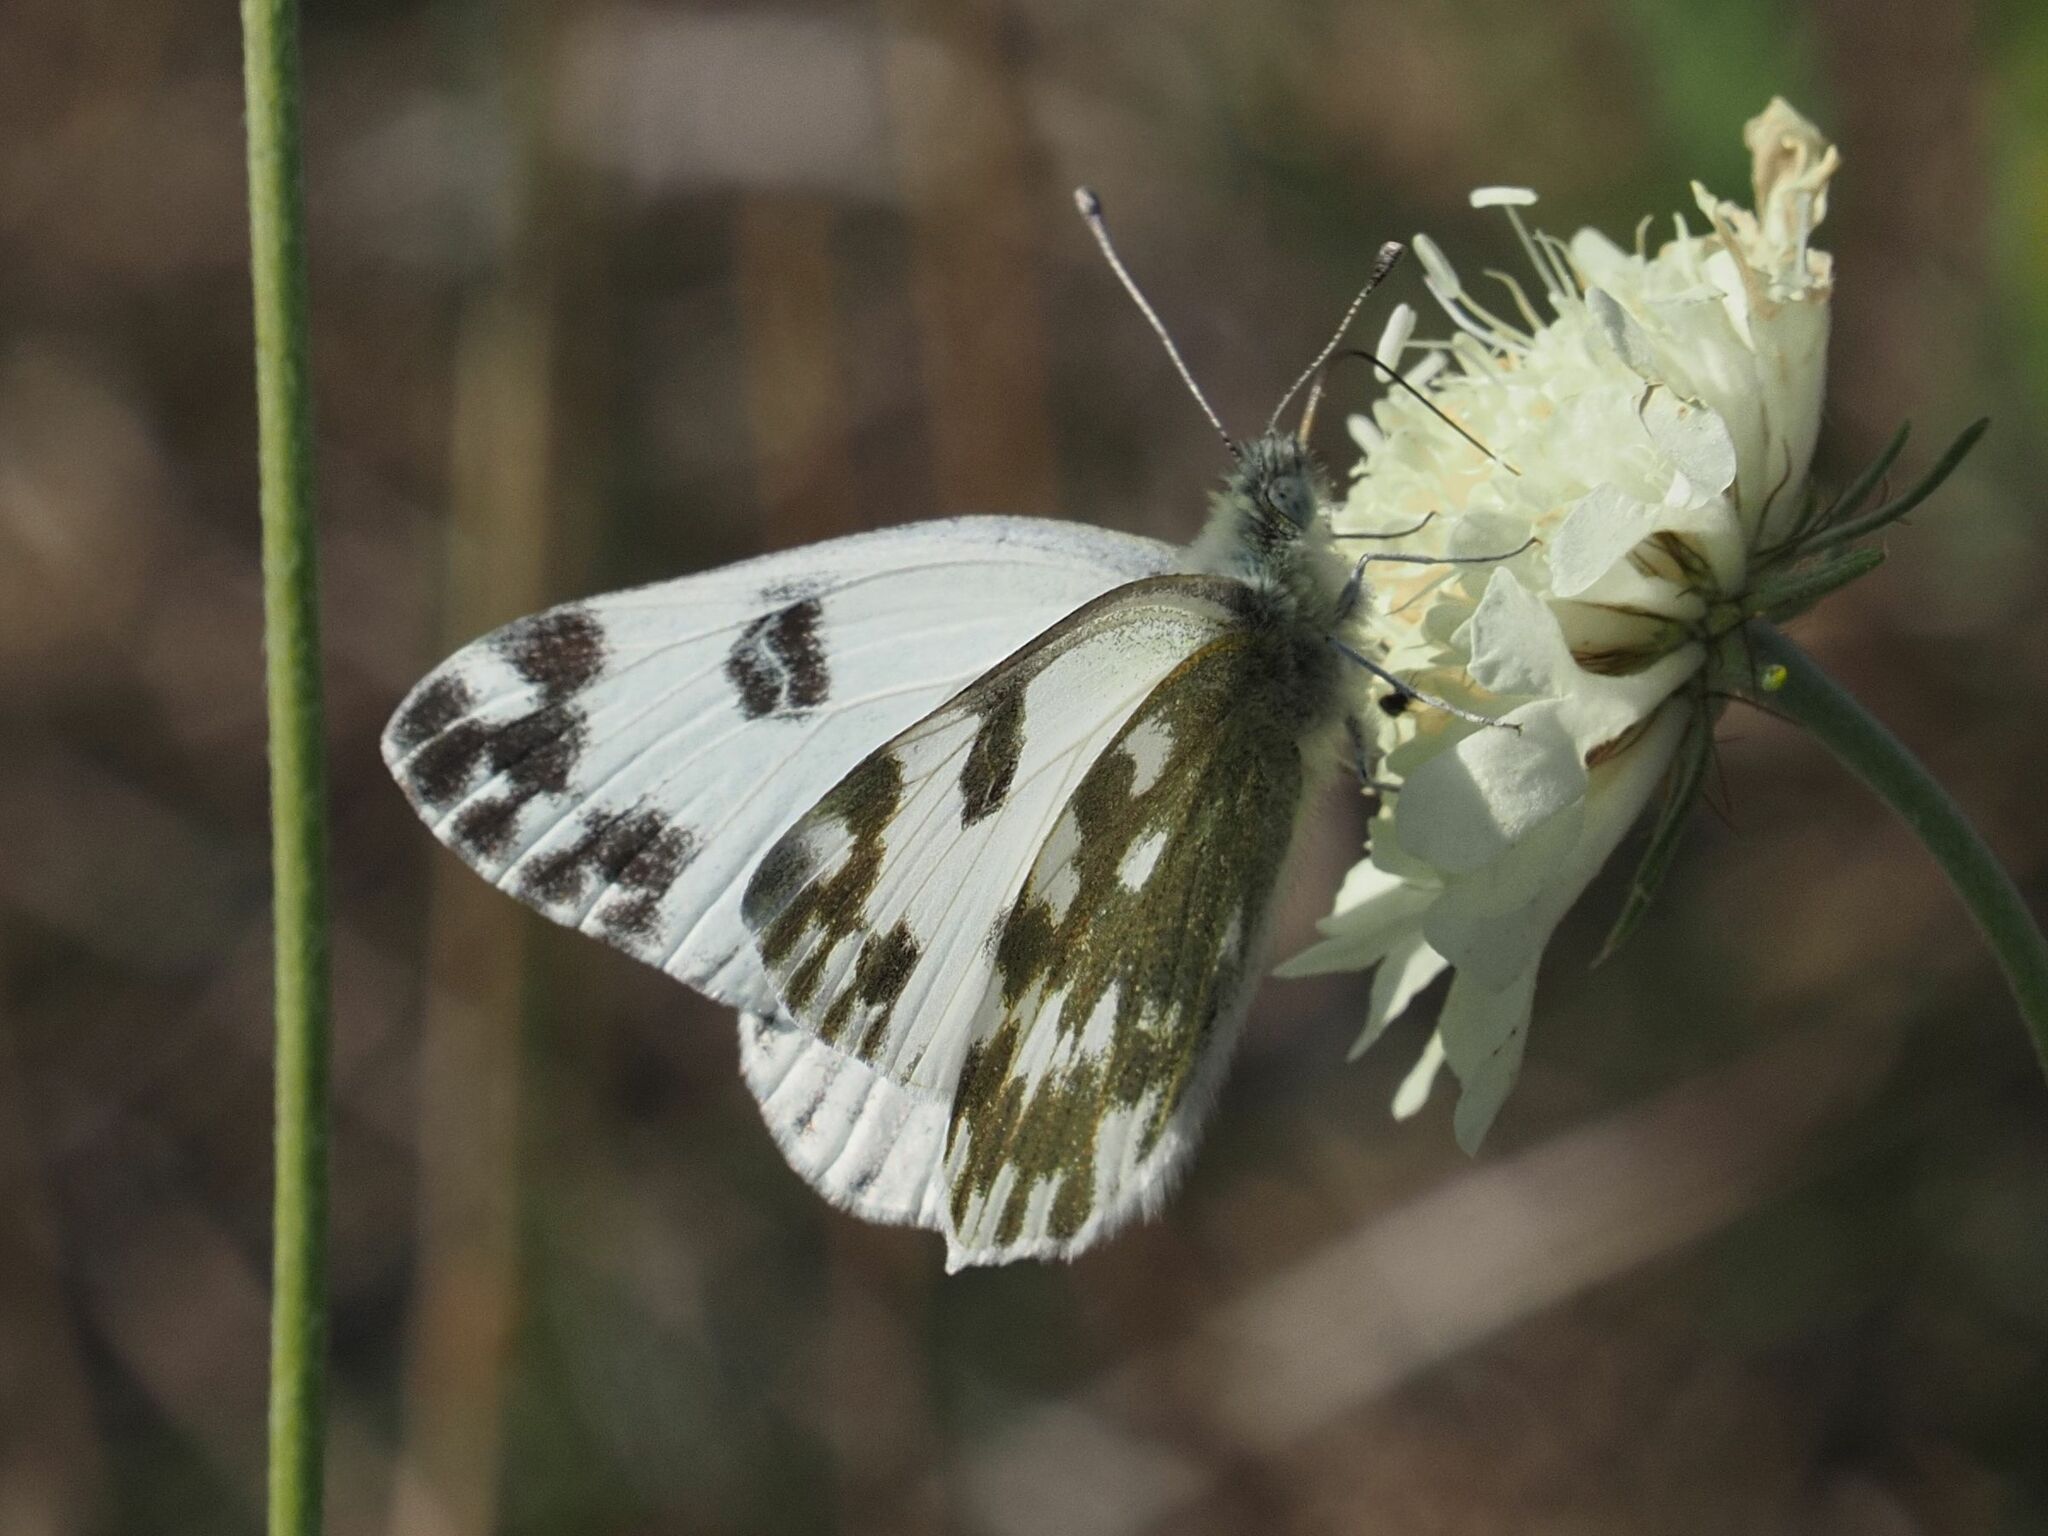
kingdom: Animalia
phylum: Arthropoda
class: Insecta
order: Lepidoptera
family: Pieridae
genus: Pontia
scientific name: Pontia edusa
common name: Eastern bath white
